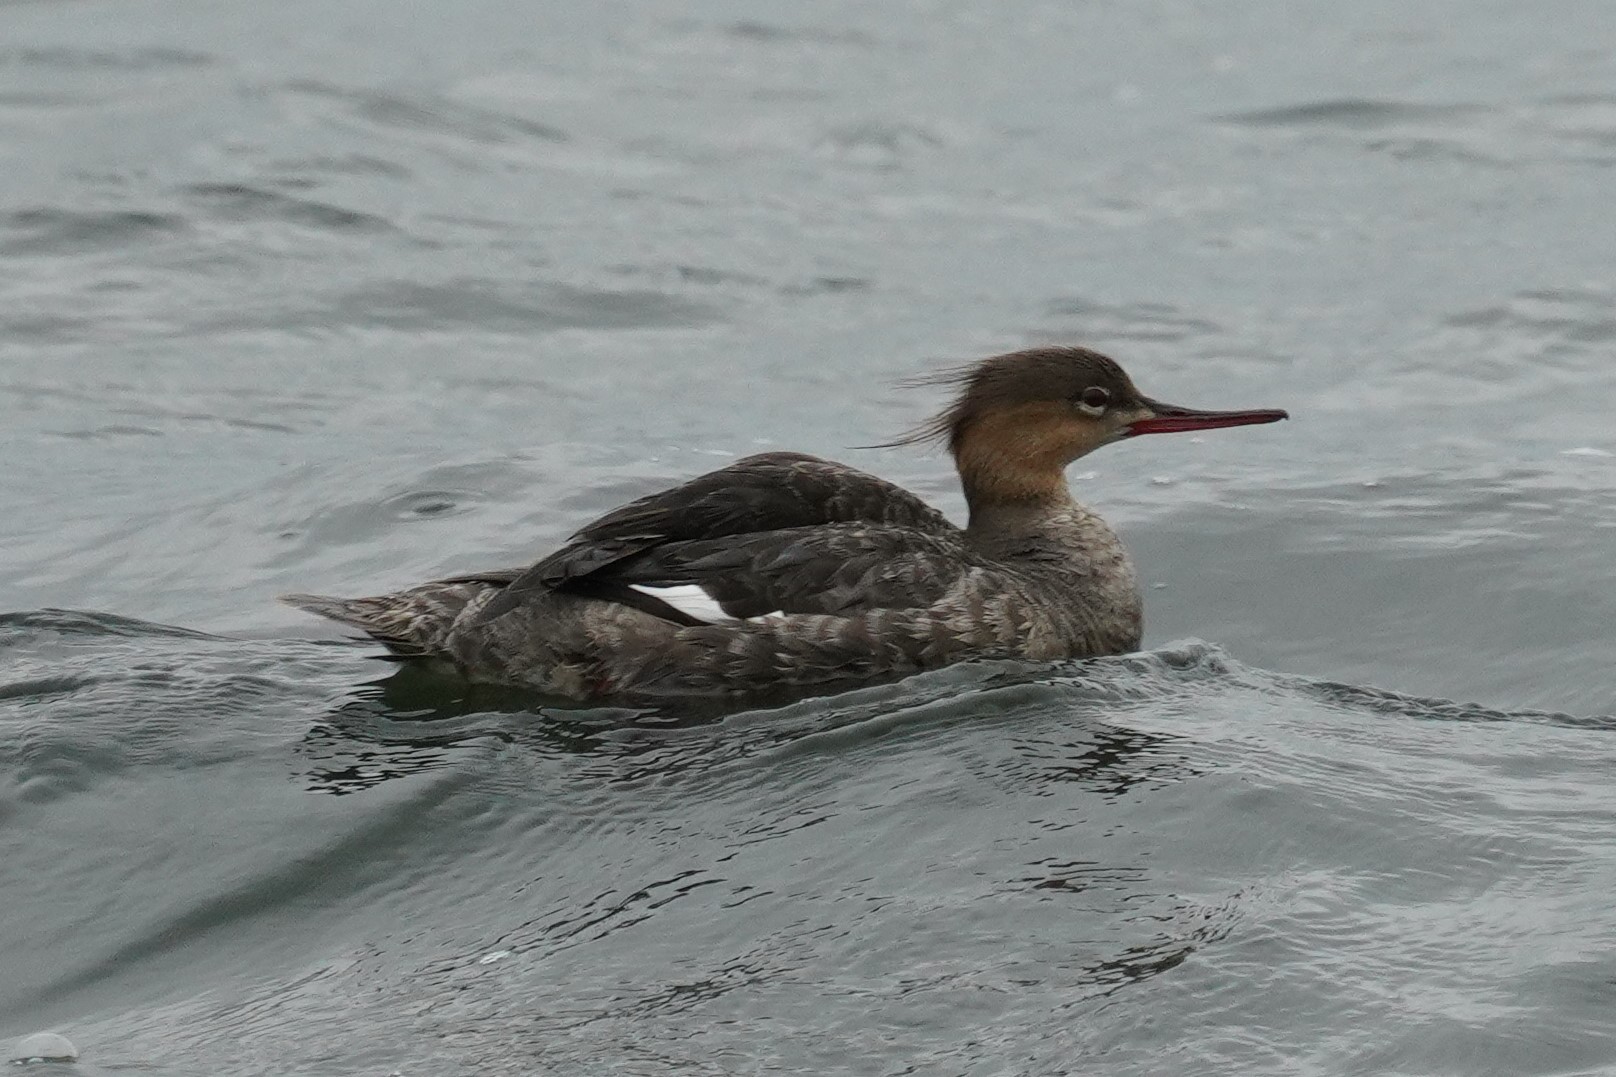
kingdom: Animalia
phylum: Chordata
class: Aves
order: Anseriformes
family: Anatidae
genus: Mergus
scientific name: Mergus serrator
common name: Red-breasted merganser
